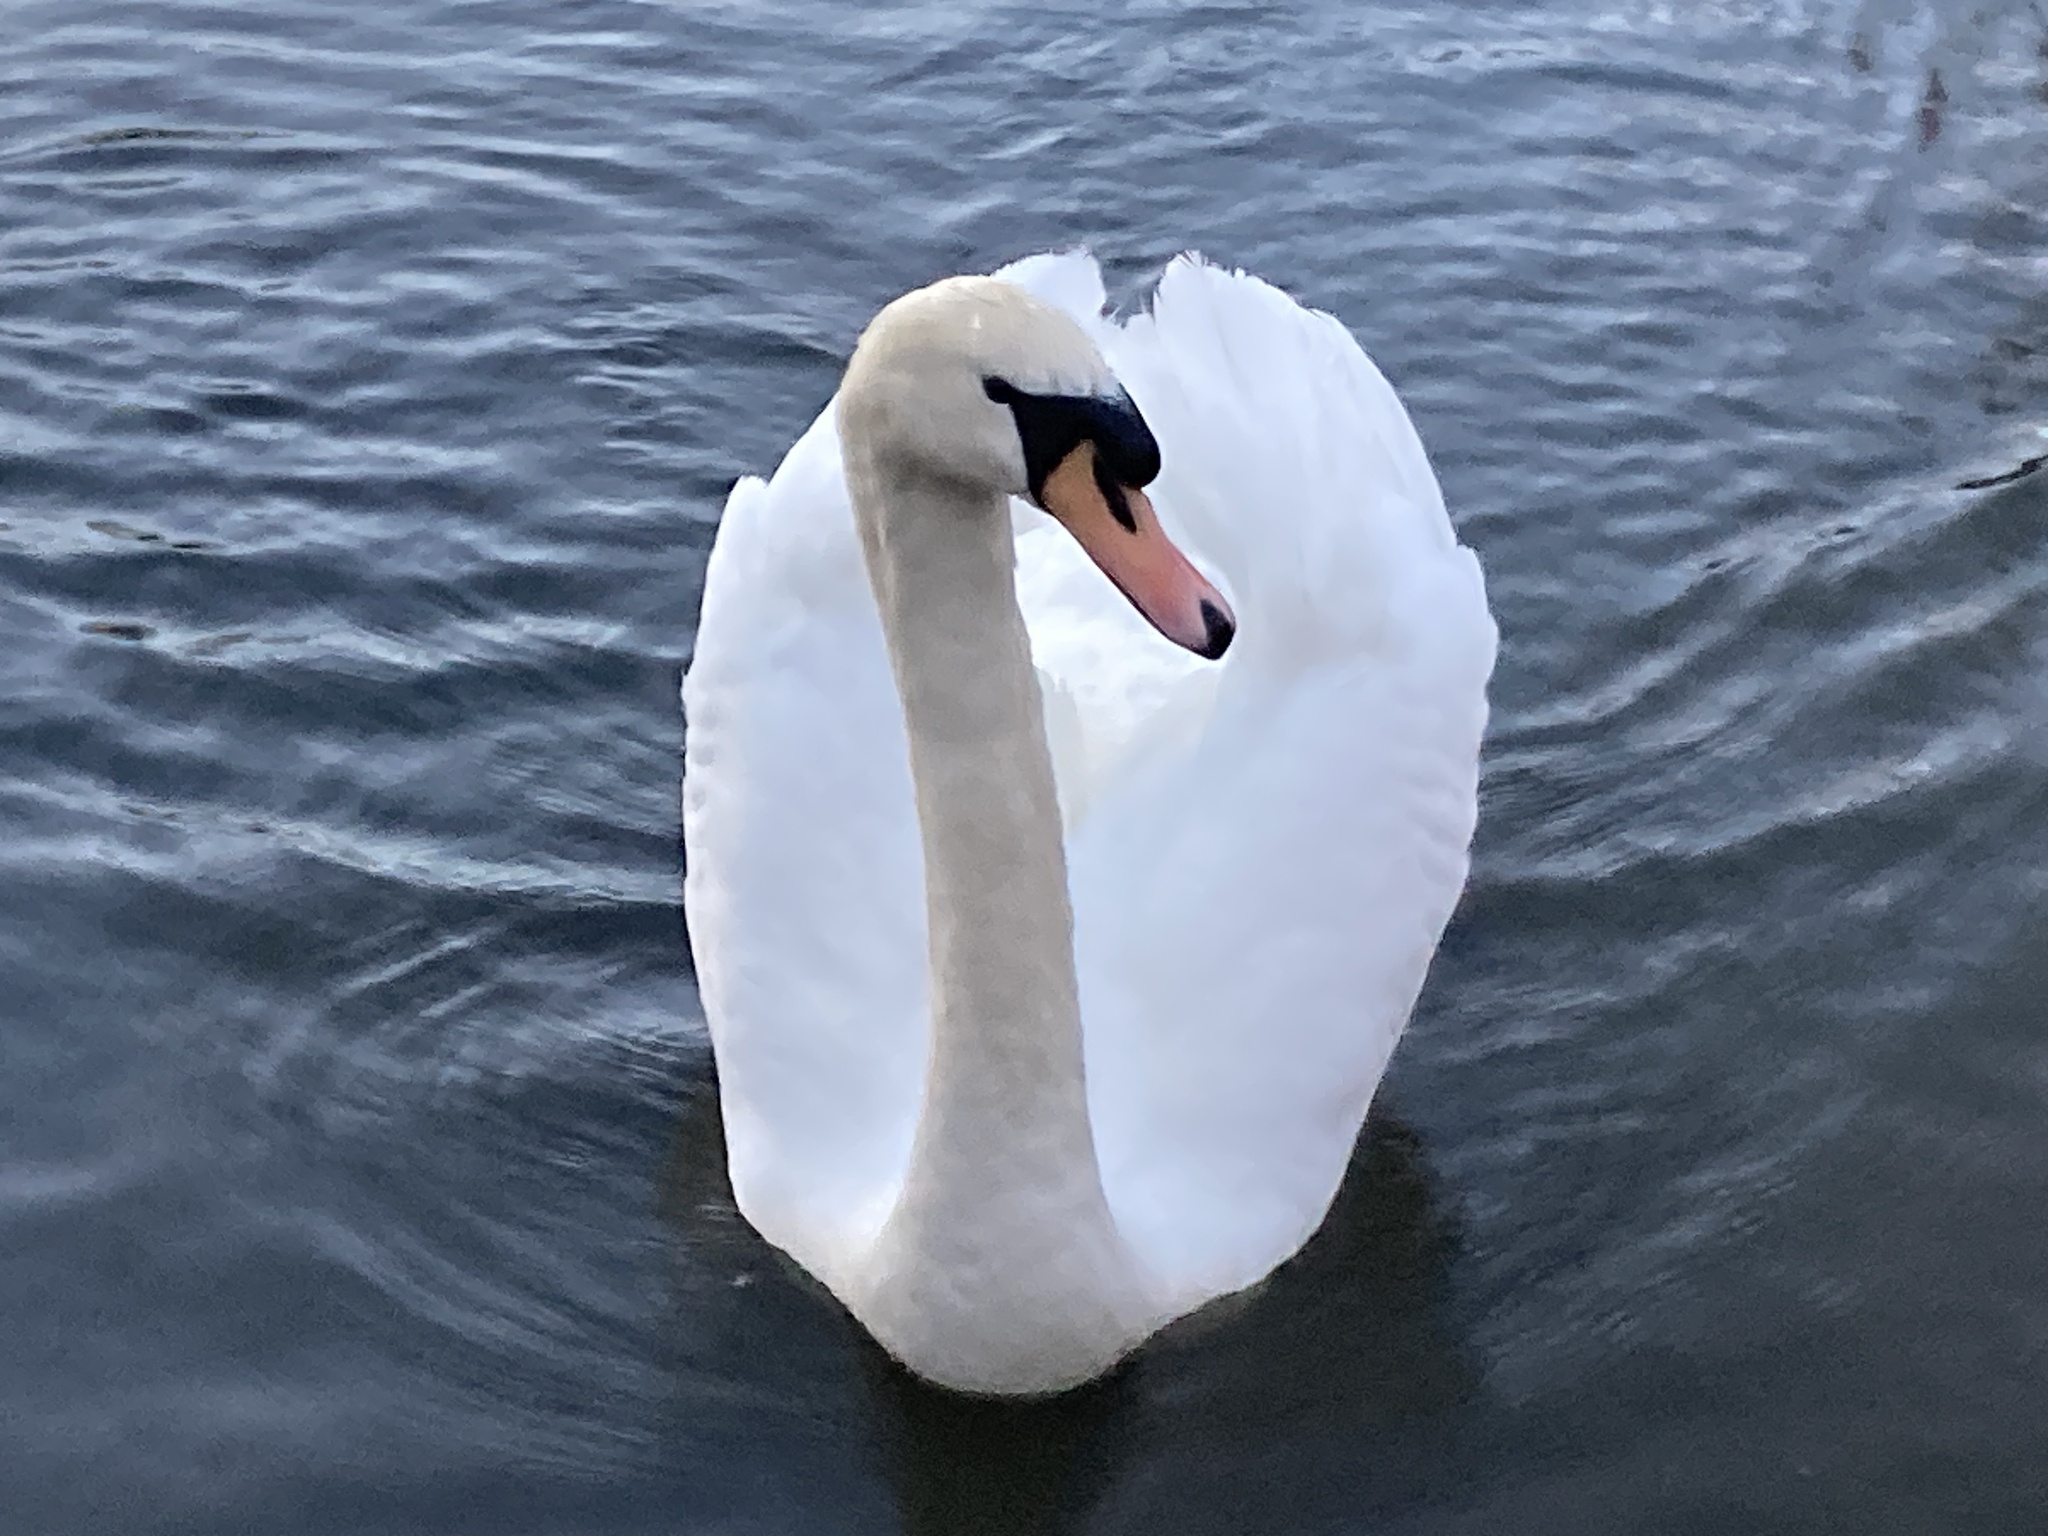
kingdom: Animalia
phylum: Chordata
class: Aves
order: Anseriformes
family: Anatidae
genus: Cygnus
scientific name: Cygnus olor
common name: Mute swan
